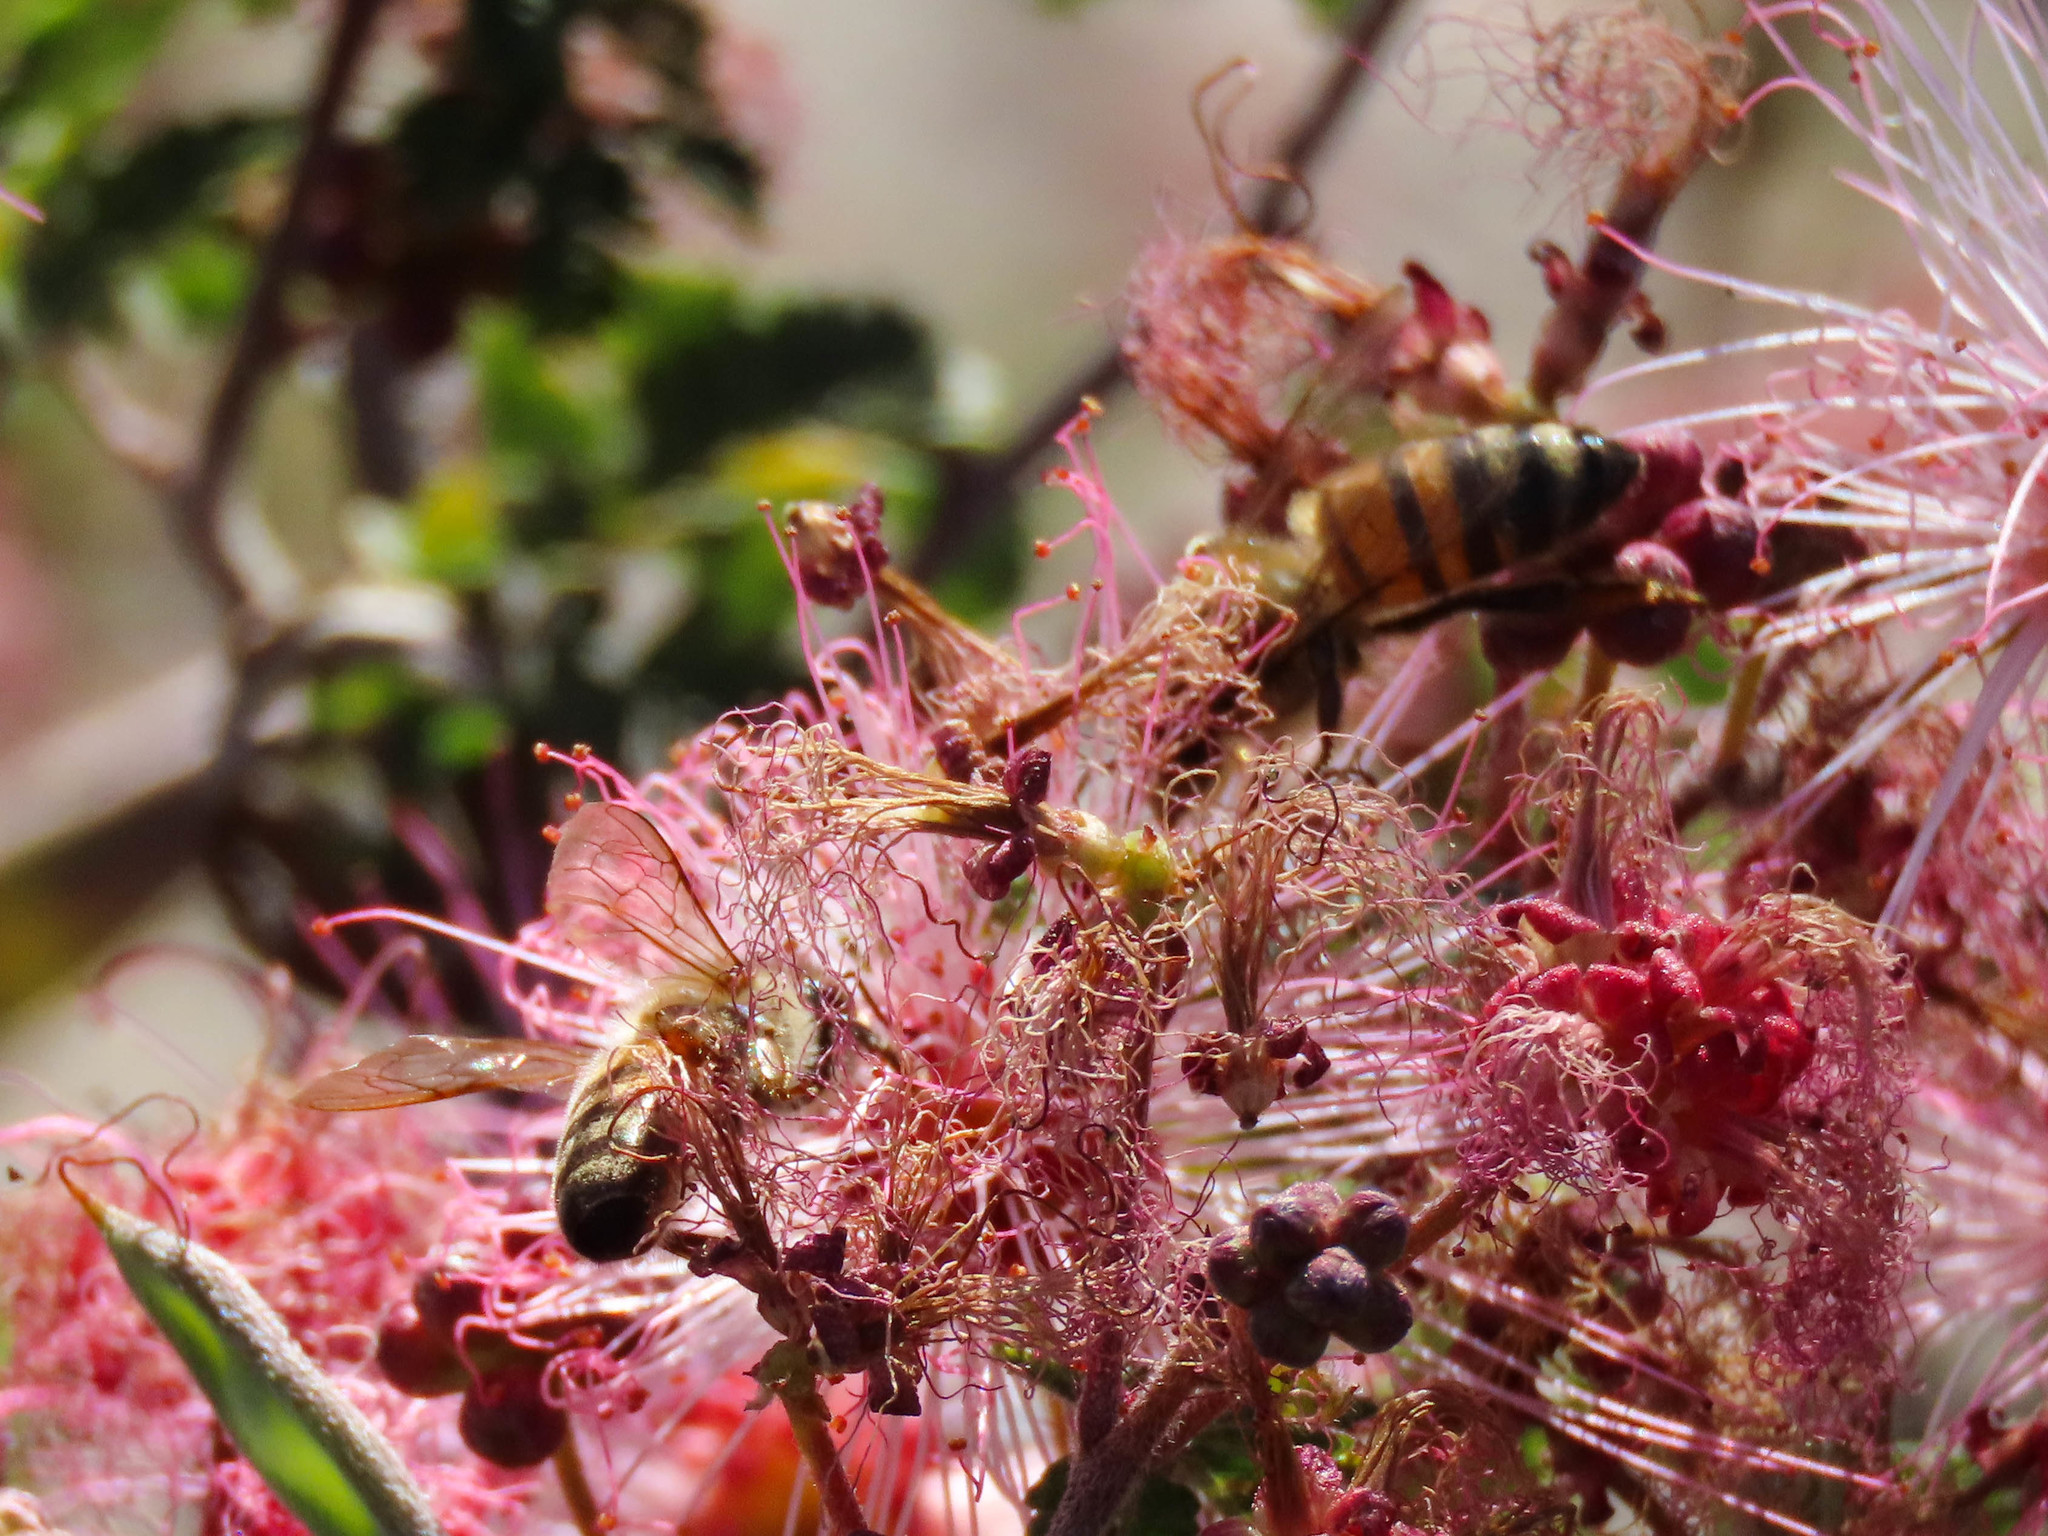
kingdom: Animalia
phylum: Arthropoda
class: Insecta
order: Hymenoptera
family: Apidae
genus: Apis
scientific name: Apis mellifera
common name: Honey bee
